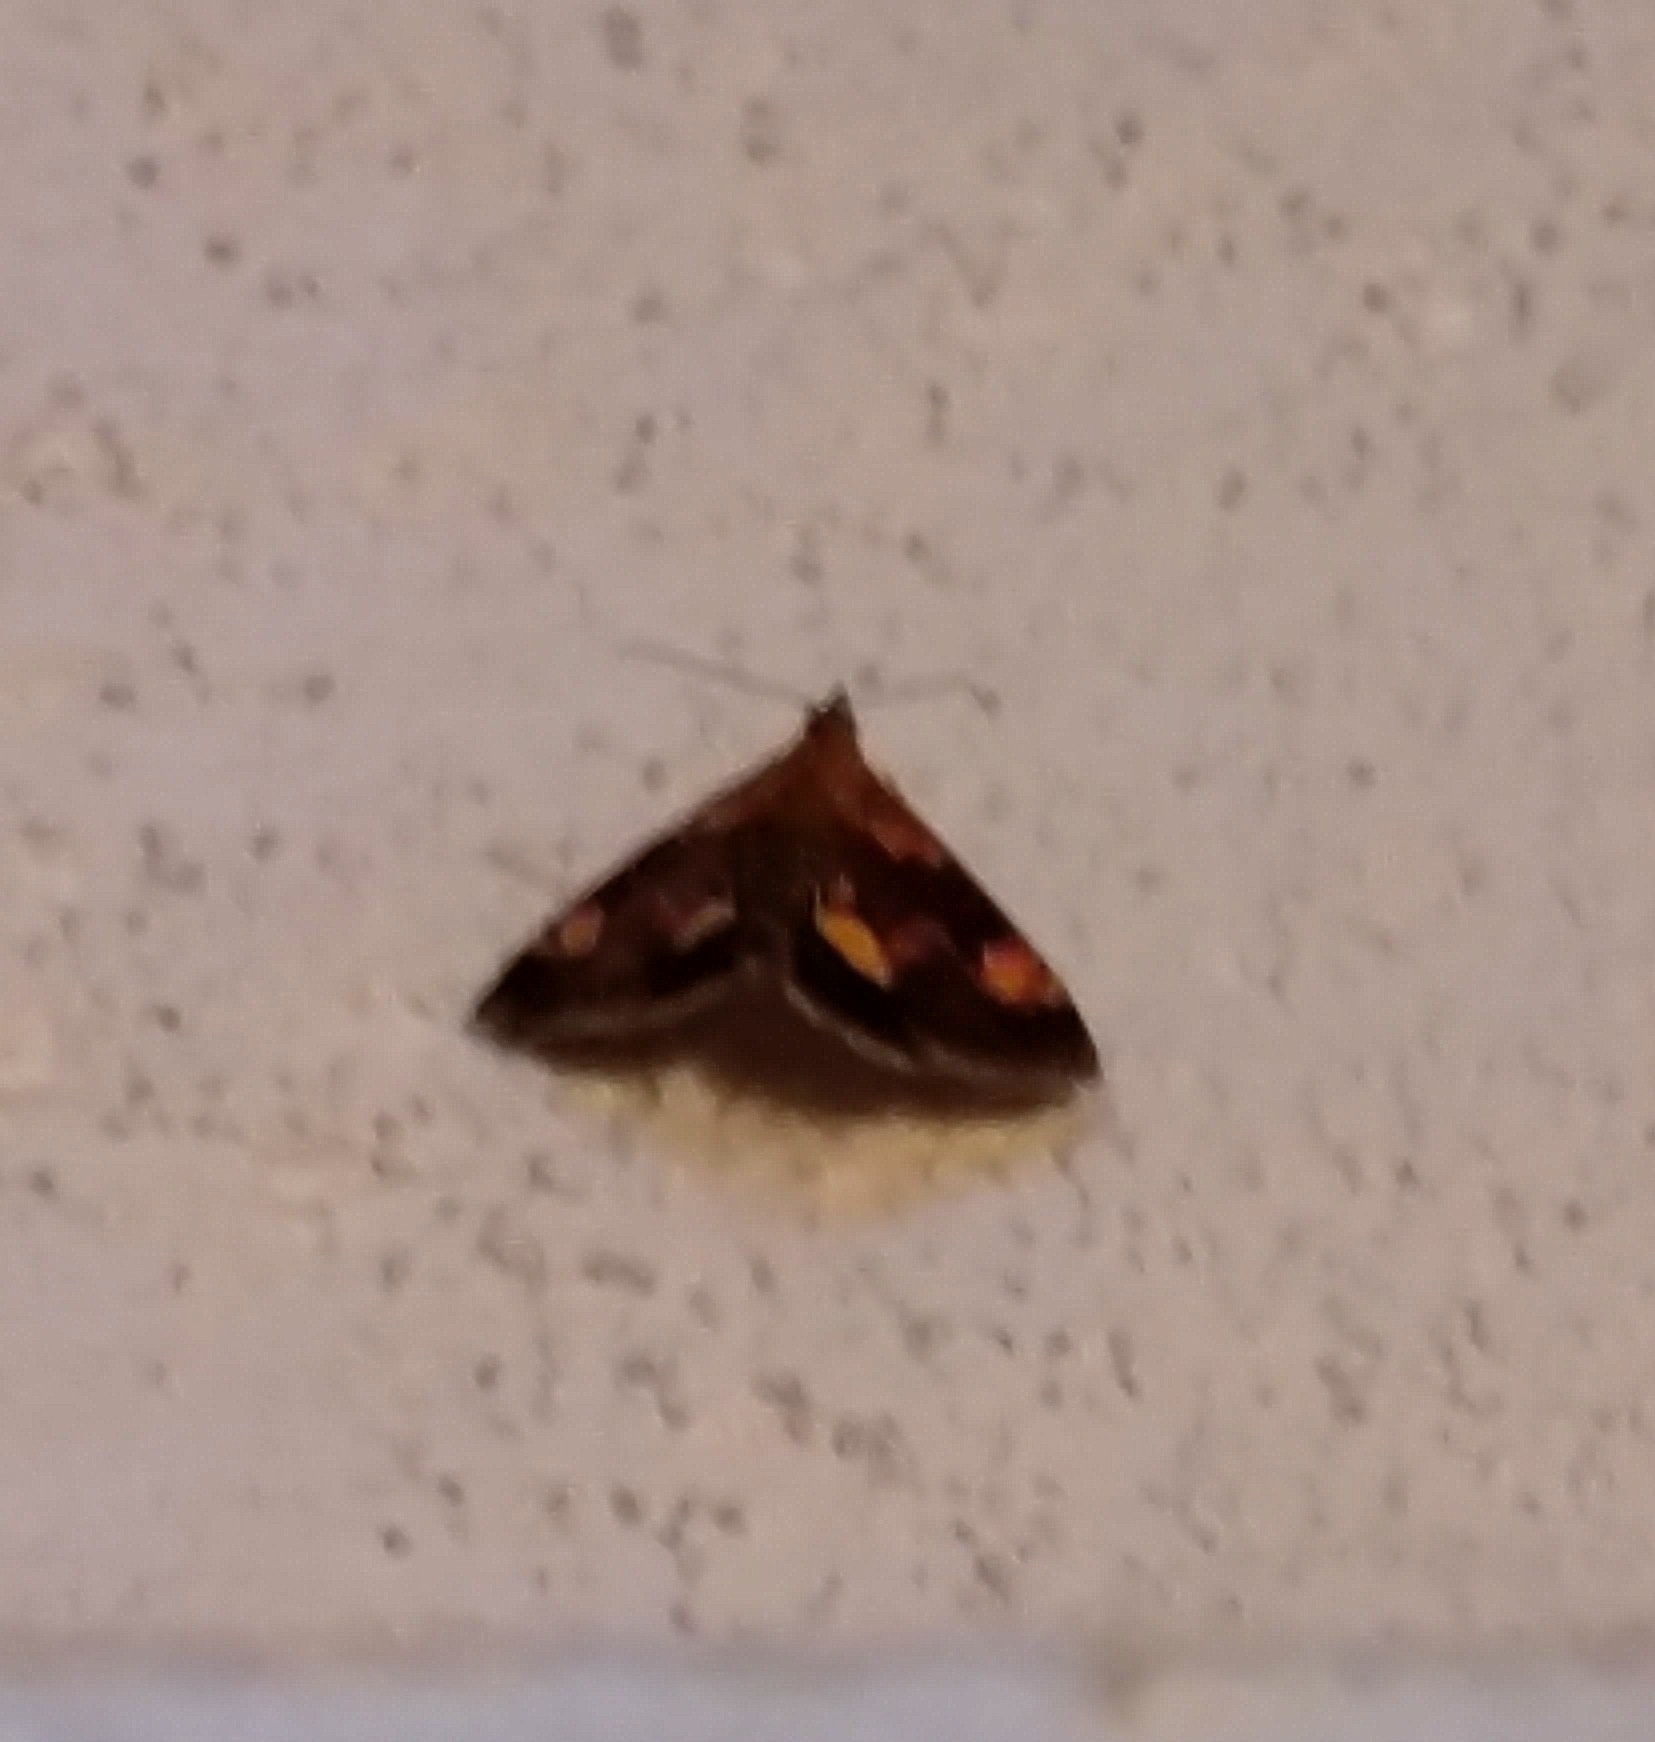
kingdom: Animalia
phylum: Arthropoda
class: Insecta
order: Lepidoptera
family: Crambidae
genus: Pyrausta
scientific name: Pyrausta orphisalis
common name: Orange mint moth
